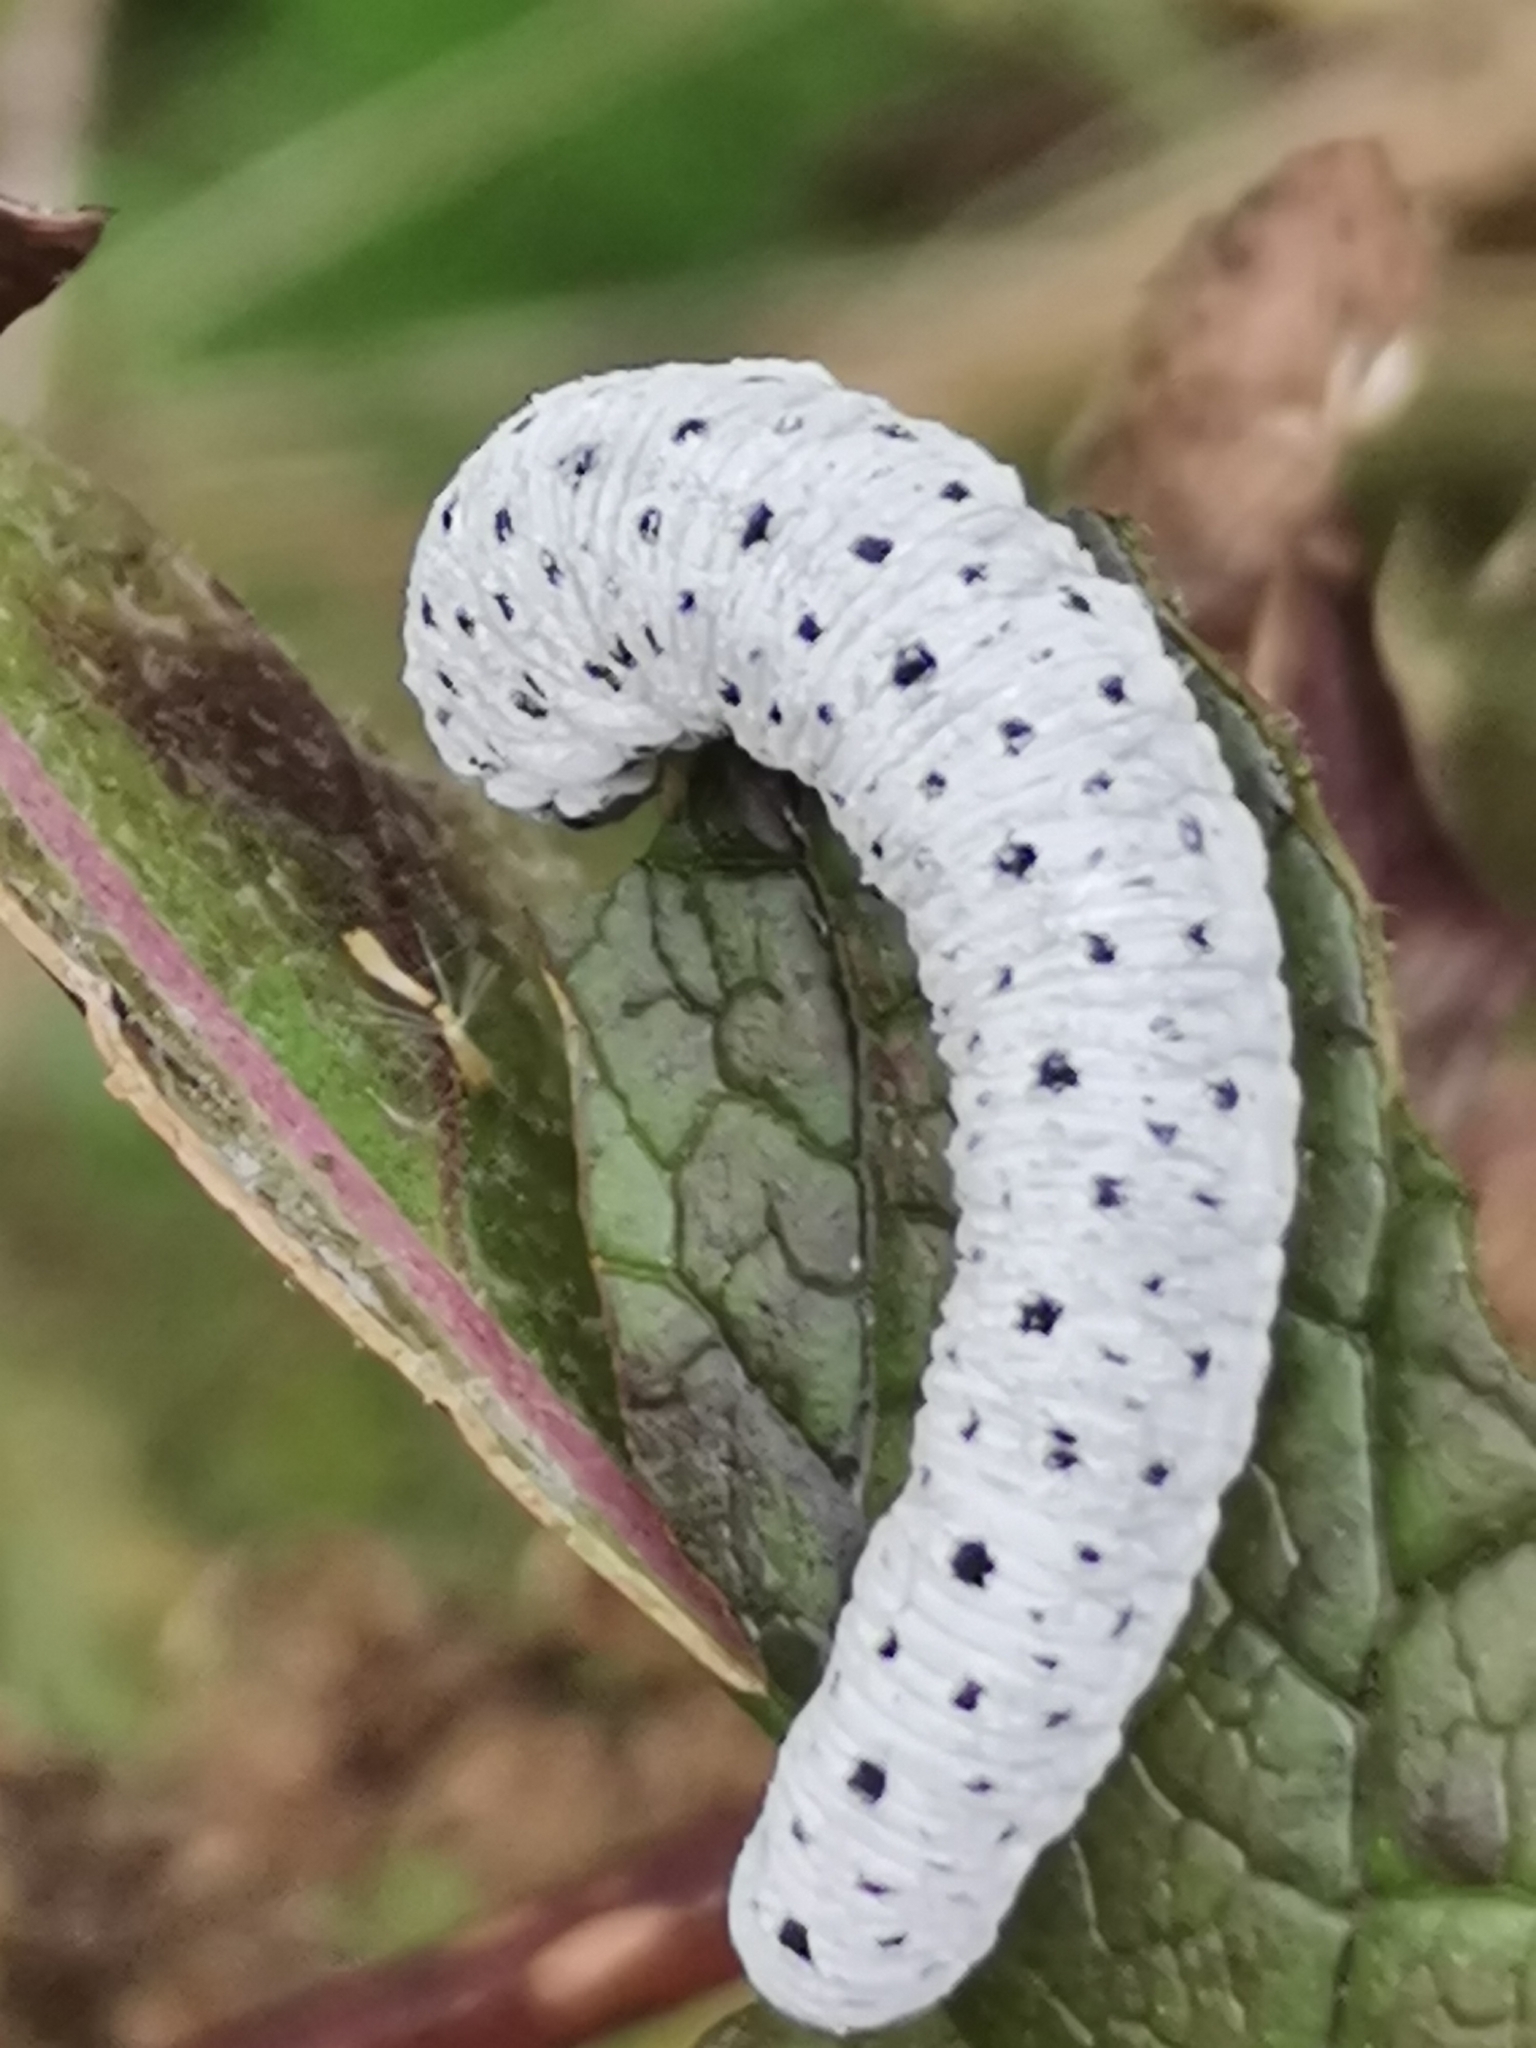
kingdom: Animalia
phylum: Arthropoda
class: Insecta
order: Hymenoptera
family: Tenthredinidae
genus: Tenthredo
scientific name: Tenthredo scrophulariae
